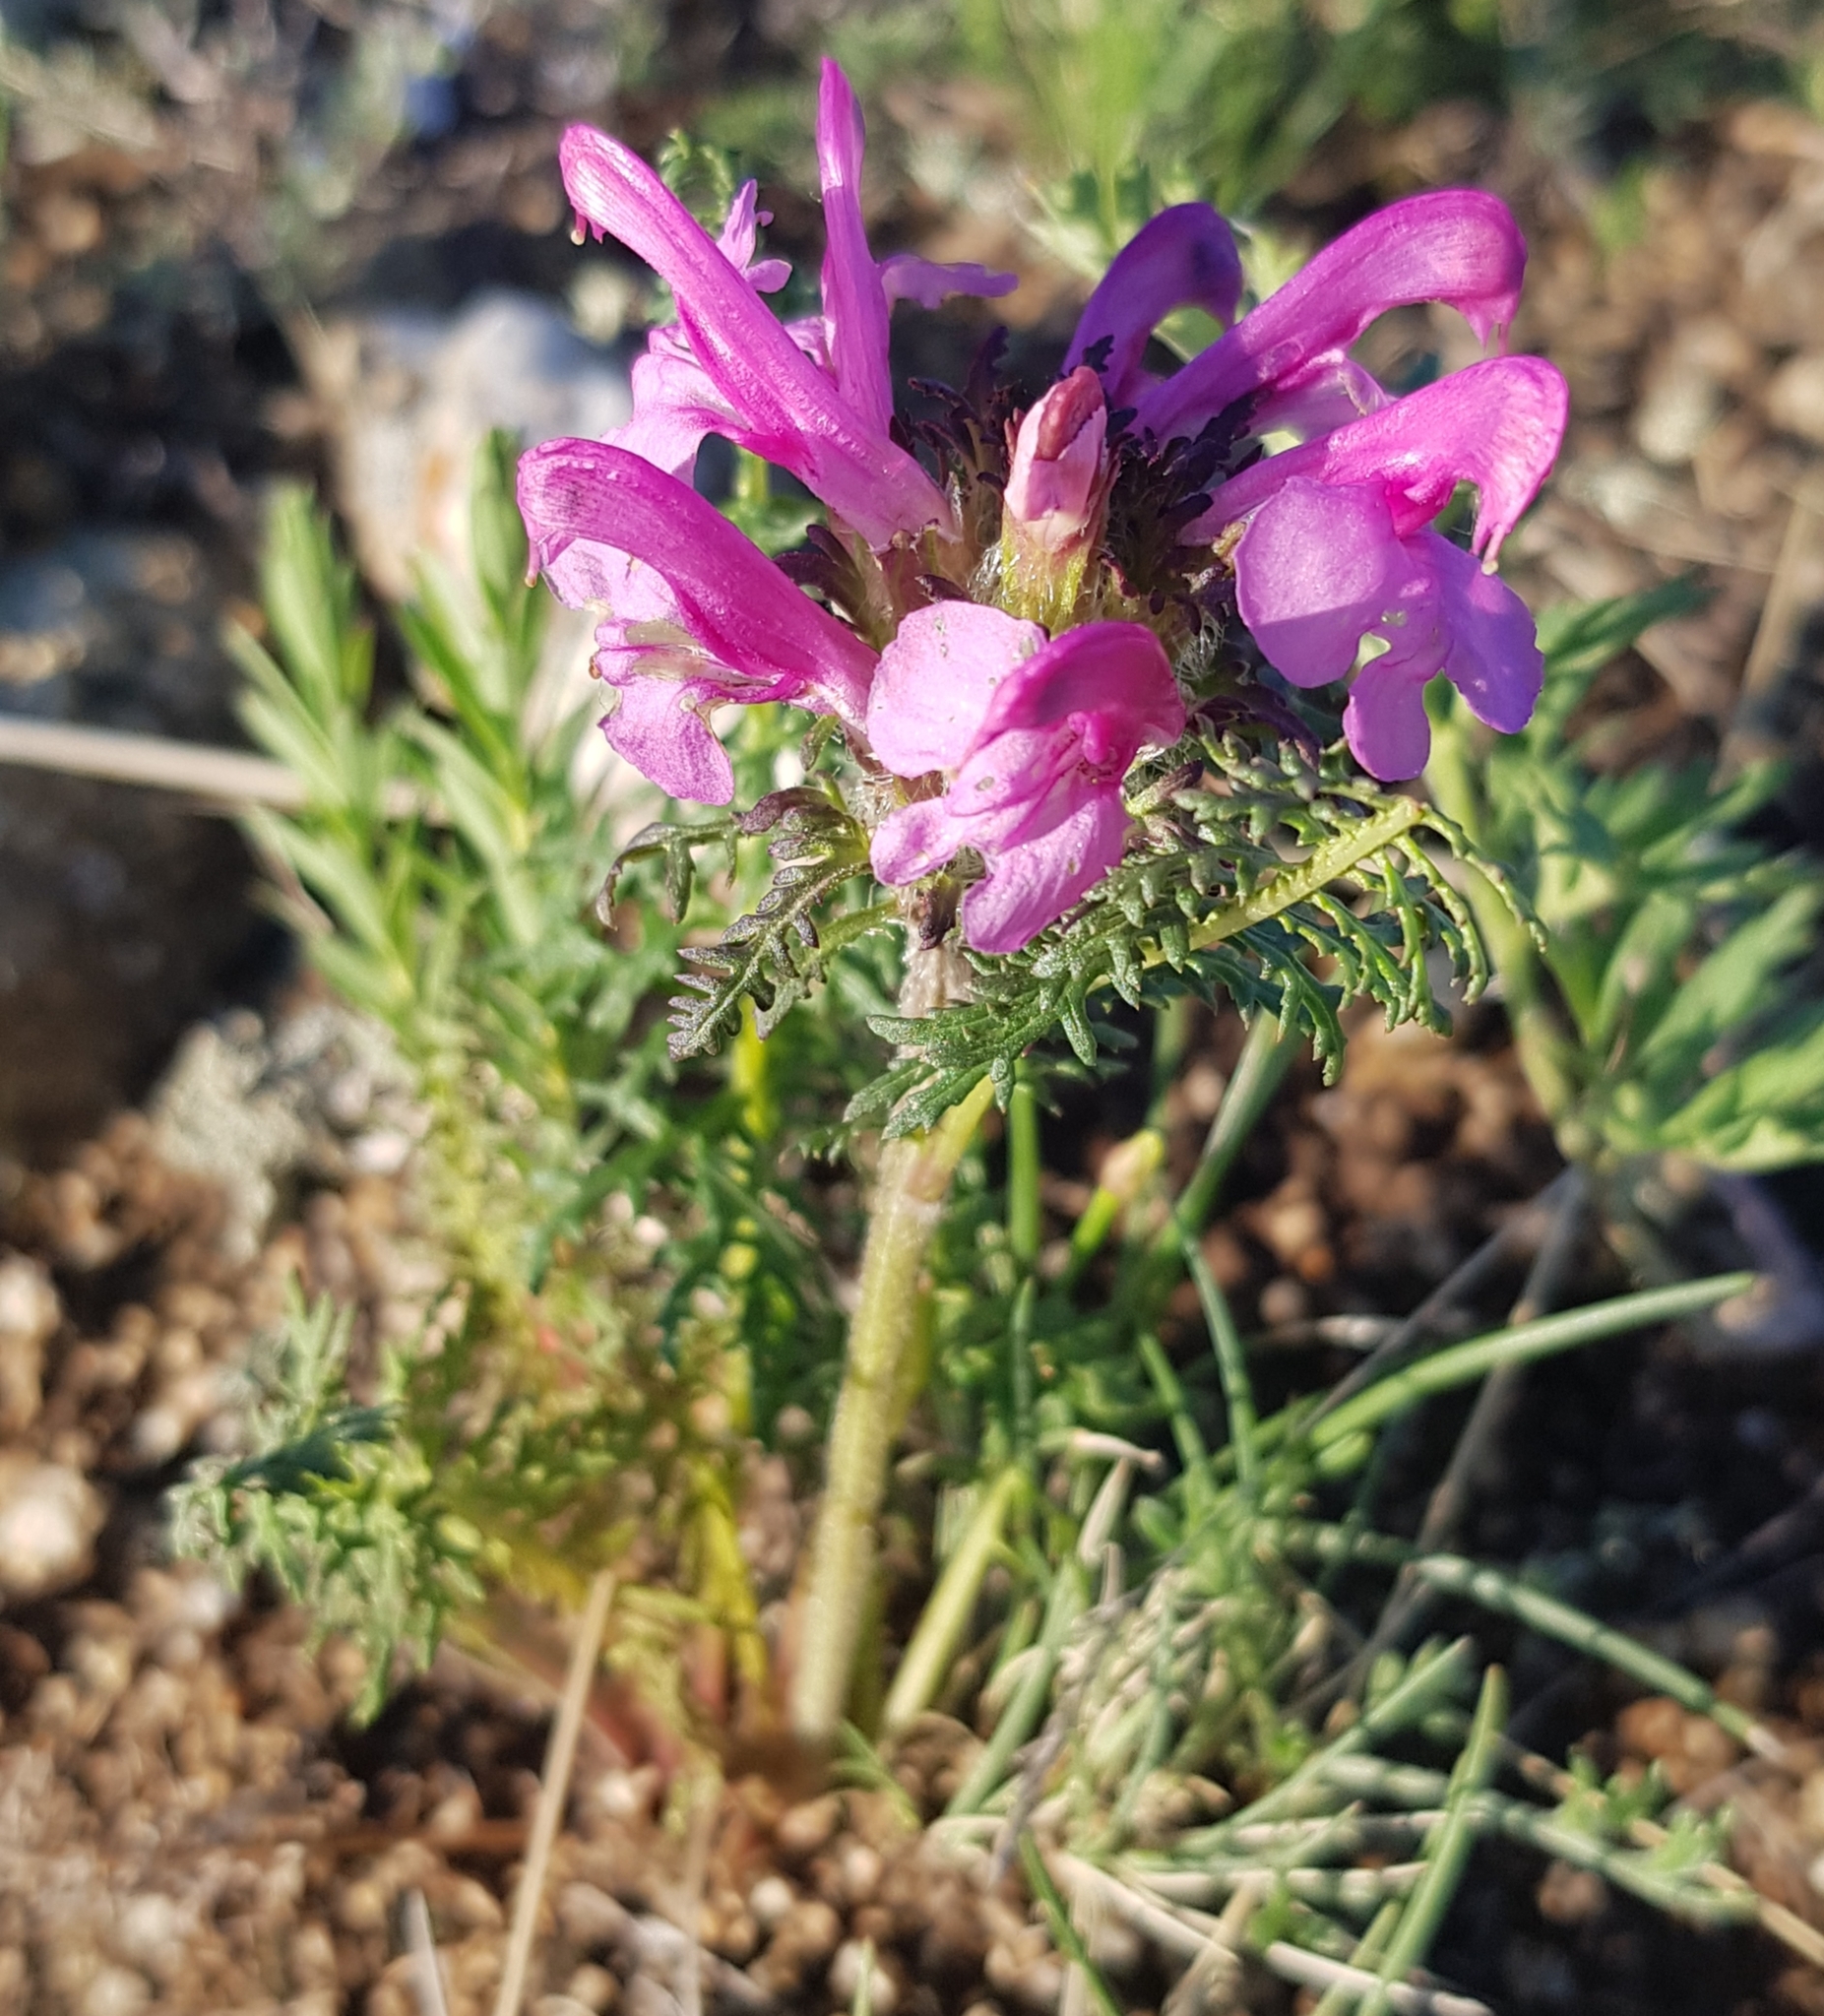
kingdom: Plantae
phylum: Tracheophyta
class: Magnoliopsida
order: Lamiales
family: Orobanchaceae
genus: Pedicularis
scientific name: Pedicularis rubens
